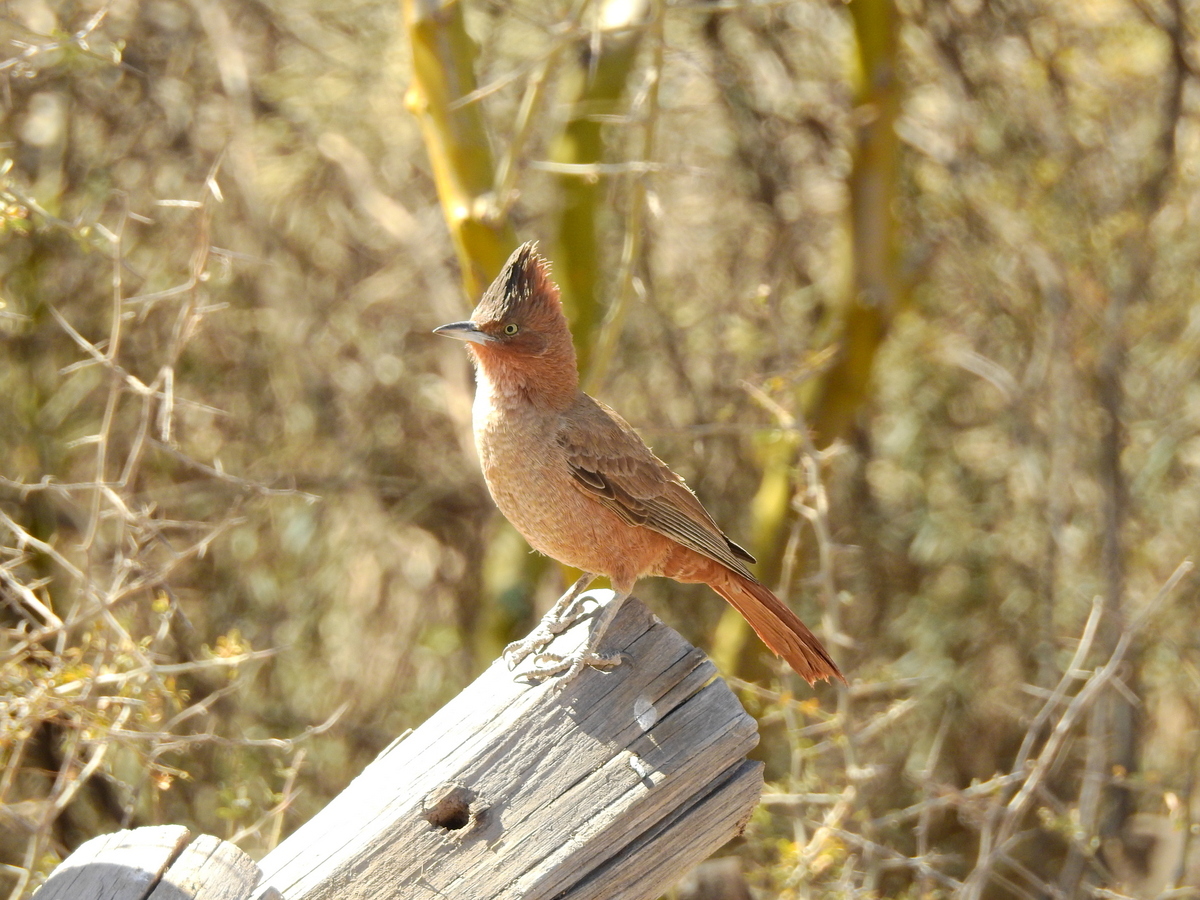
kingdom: Animalia
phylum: Chordata
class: Aves
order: Passeriformes
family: Furnariidae
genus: Pseudoseisura
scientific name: Pseudoseisura lophotes
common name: Brown cacholote
